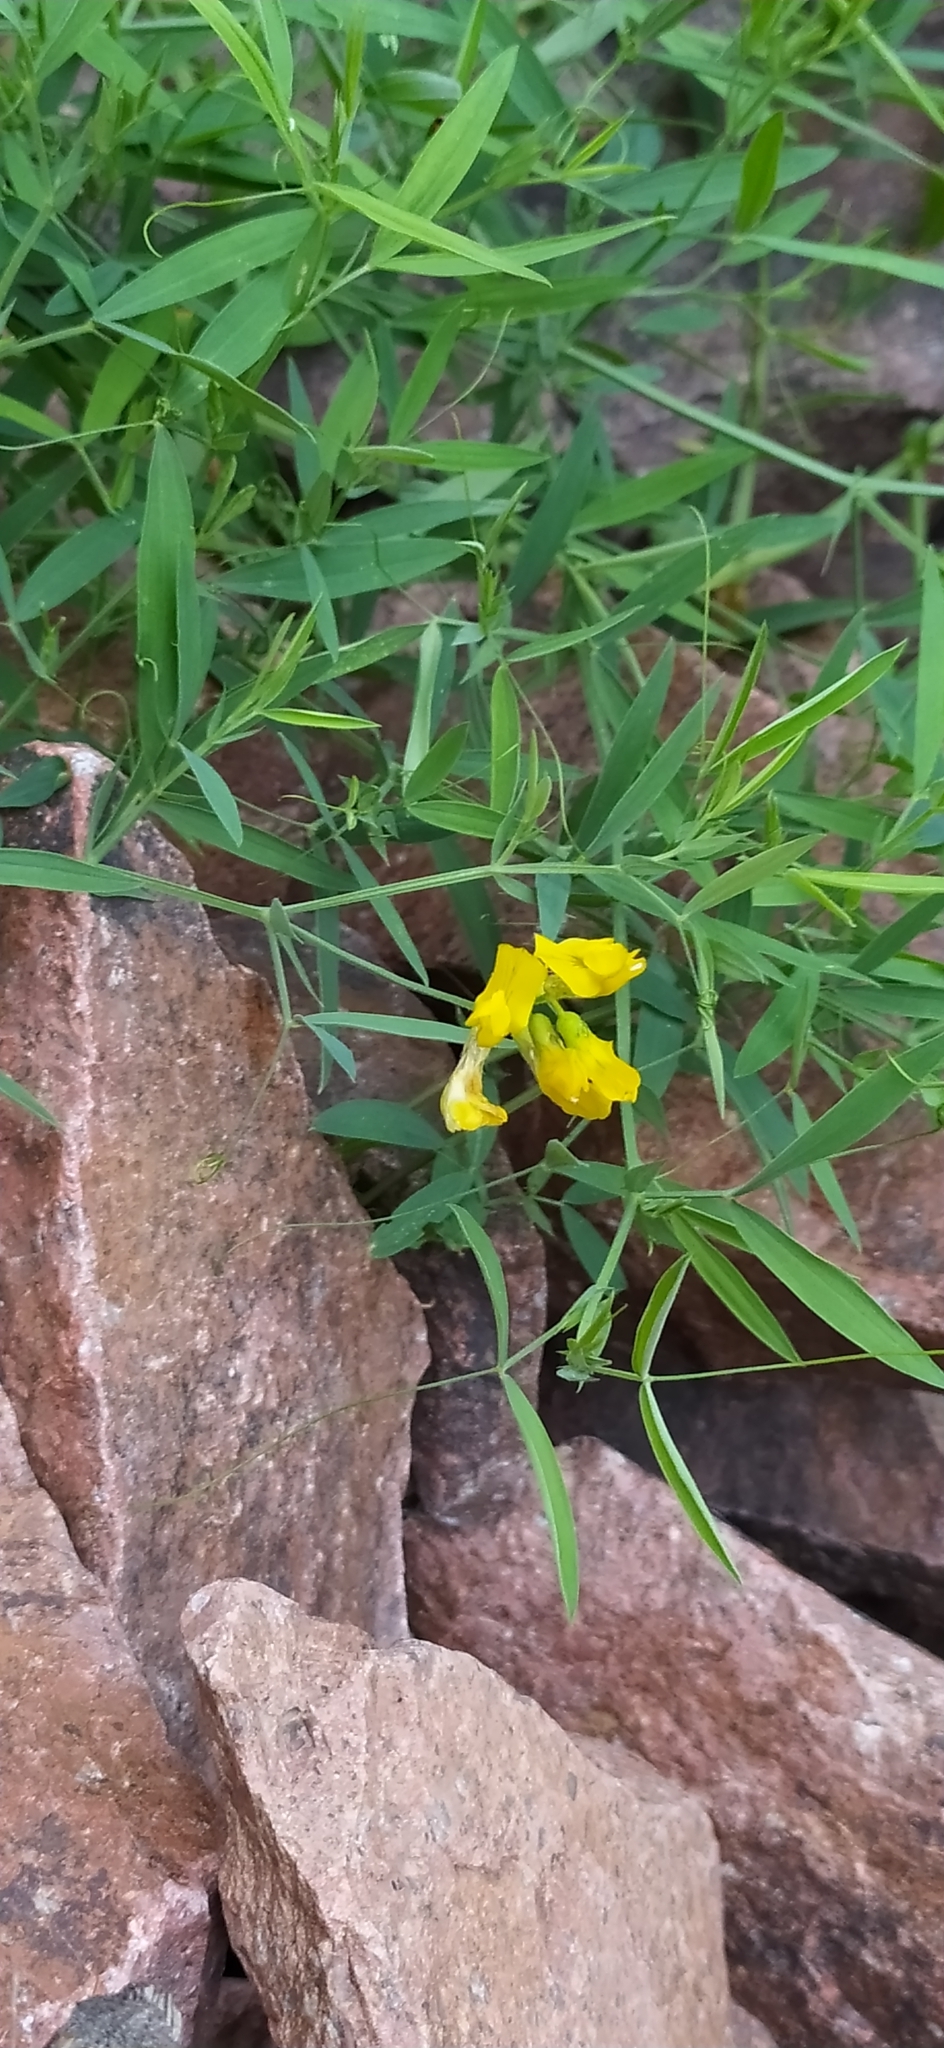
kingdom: Plantae
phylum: Tracheophyta
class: Magnoliopsida
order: Fabales
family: Fabaceae
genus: Lathyrus
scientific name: Lathyrus pratensis
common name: Meadow vetchling
